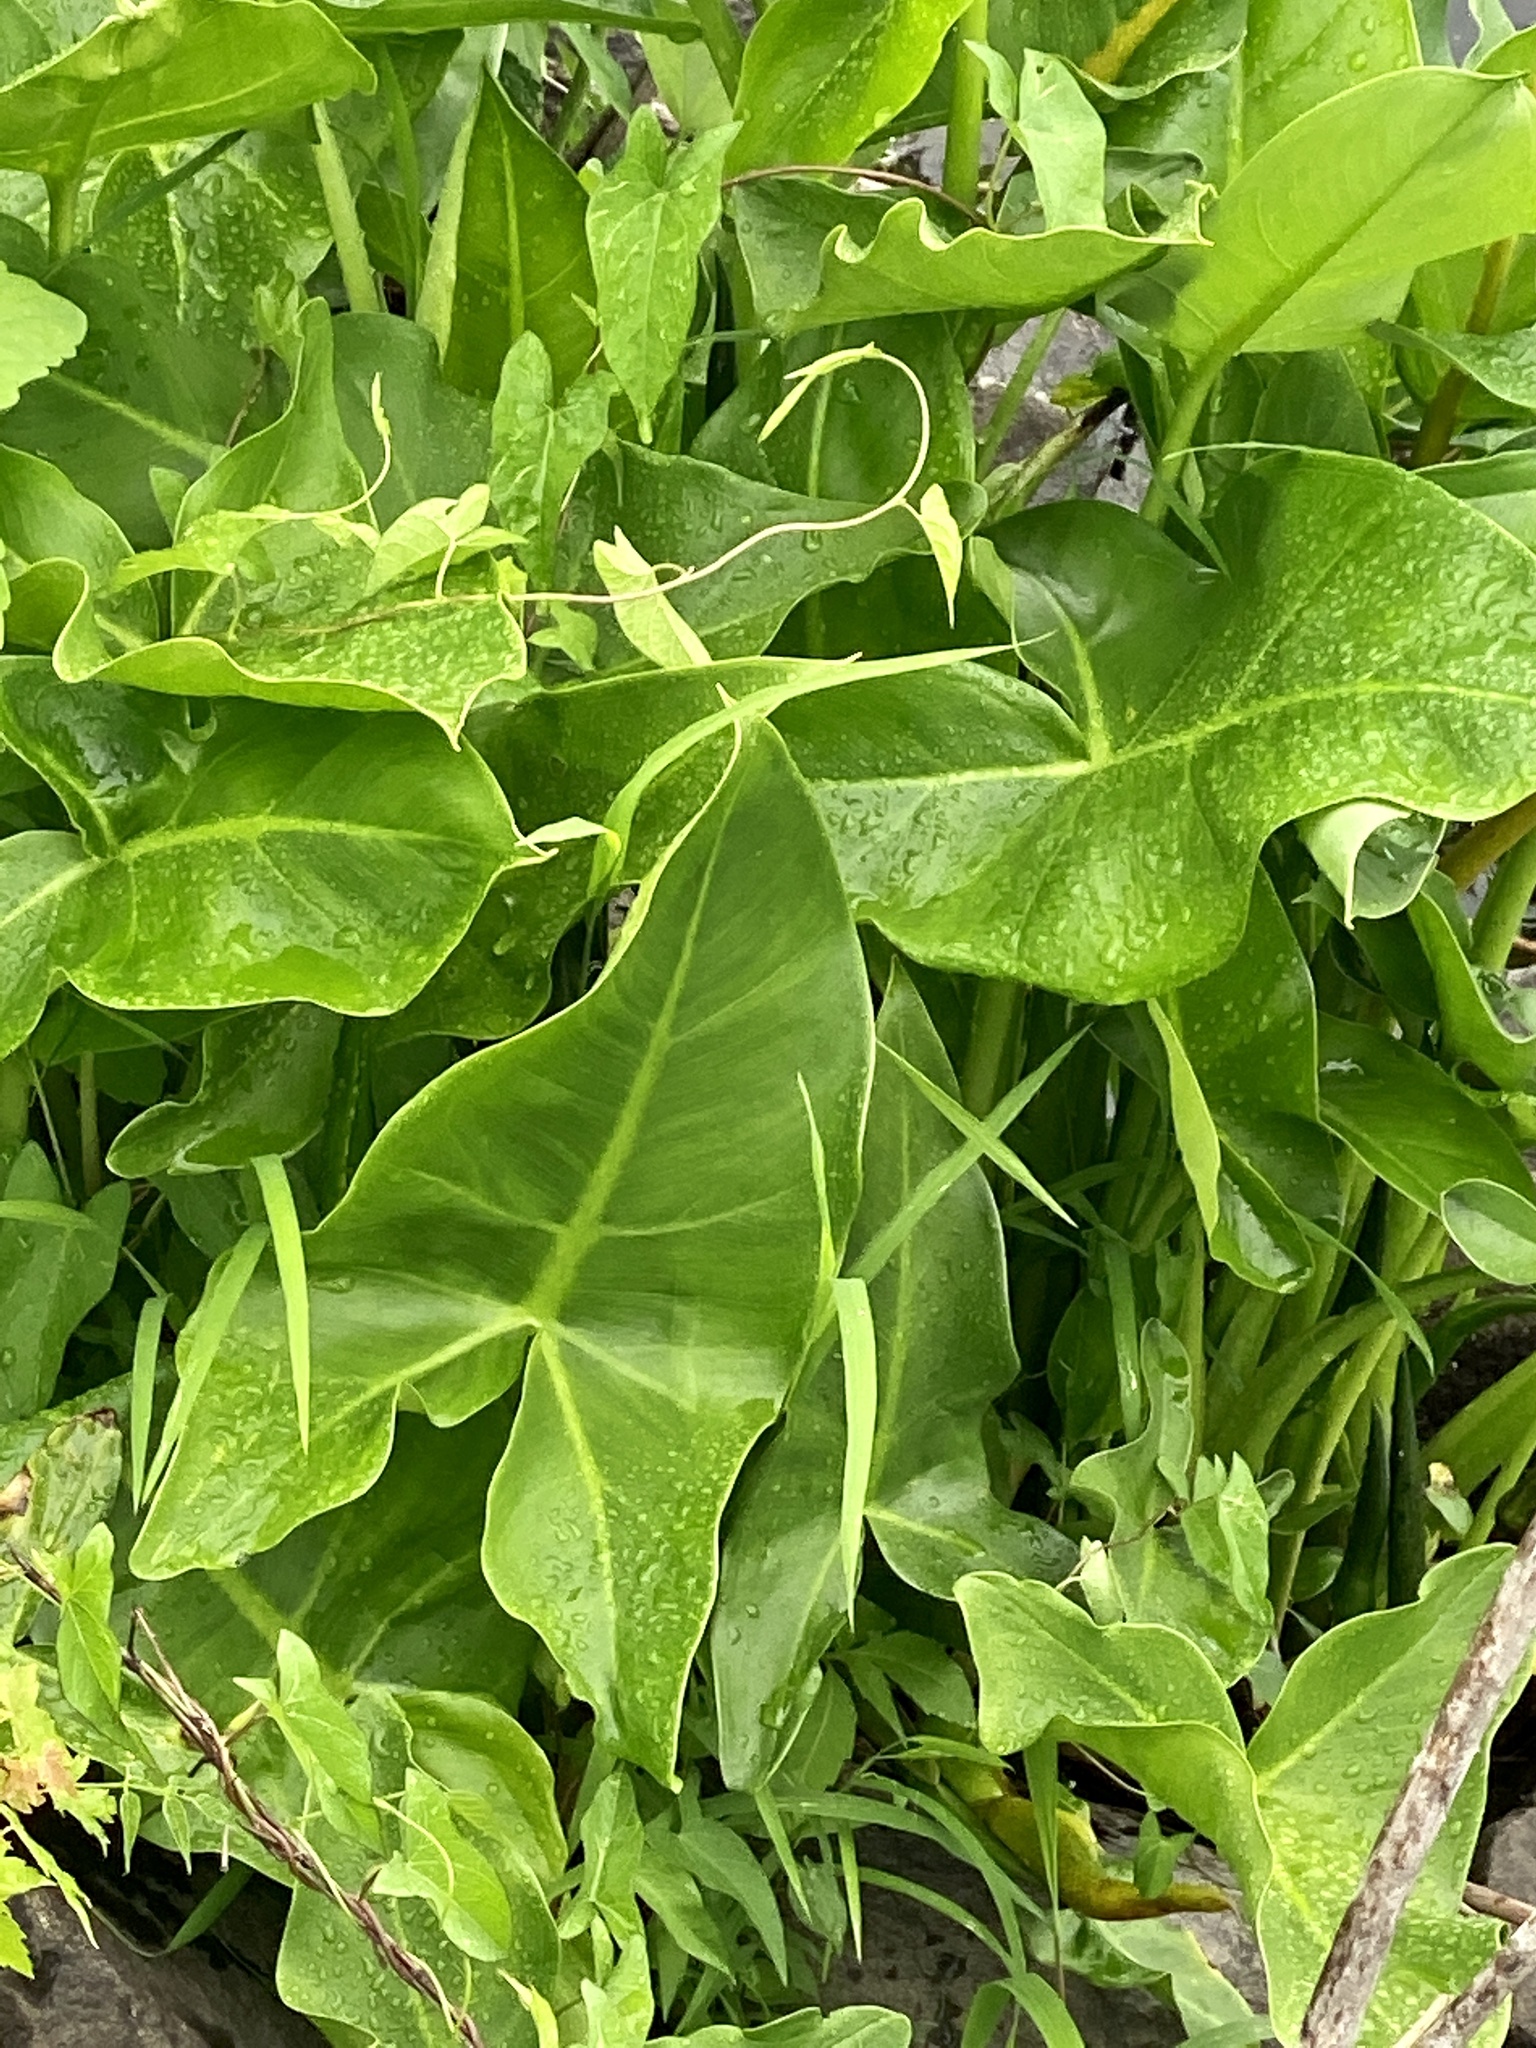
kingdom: Plantae
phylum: Tracheophyta
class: Liliopsida
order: Alismatales
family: Araceae
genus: Peltandra
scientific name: Peltandra virginica
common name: Arrow arum
